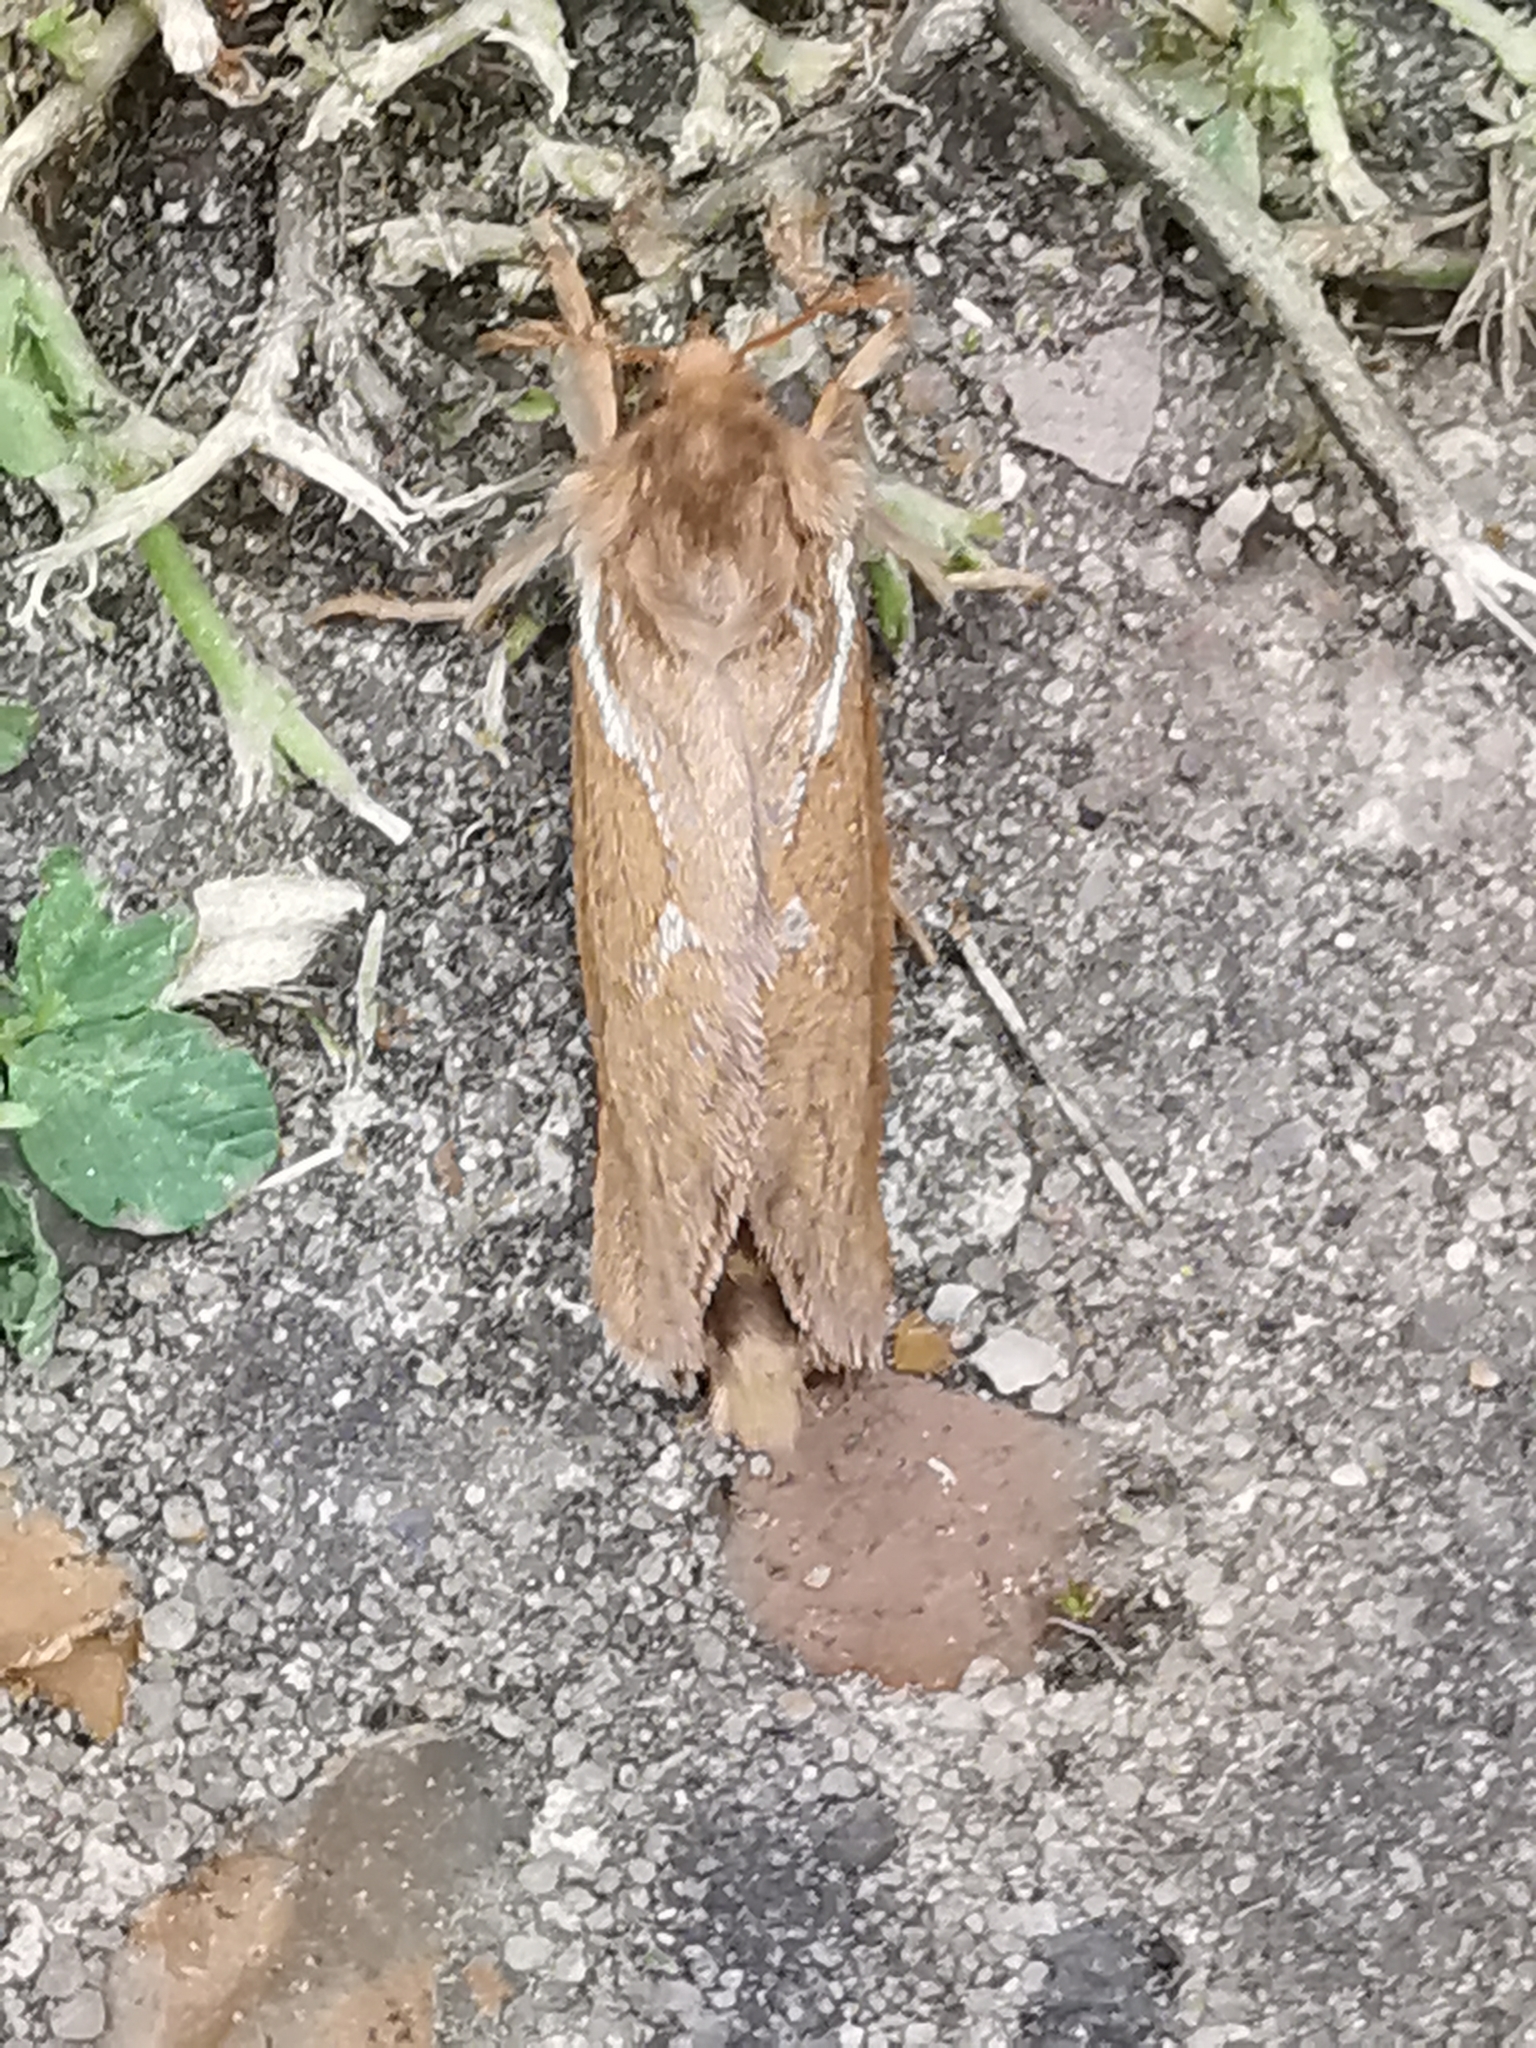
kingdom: Animalia
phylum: Arthropoda
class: Insecta
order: Lepidoptera
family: Hepialidae
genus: Korscheltellus
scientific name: Korscheltellus lupulina
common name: Common swift
